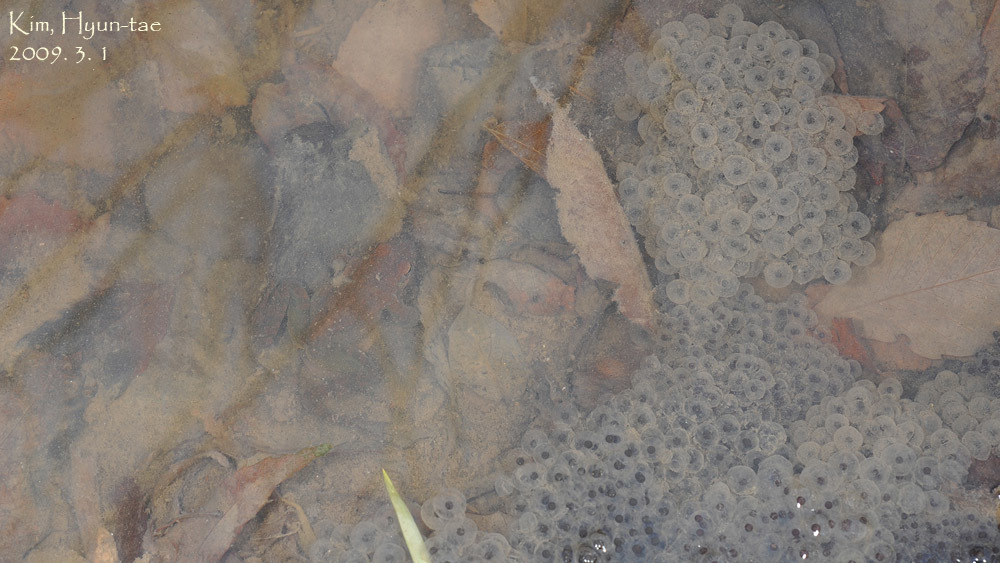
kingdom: Animalia
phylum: Chordata
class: Amphibia
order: Anura
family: Ranidae
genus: Rana
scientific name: Rana huanrenensis
